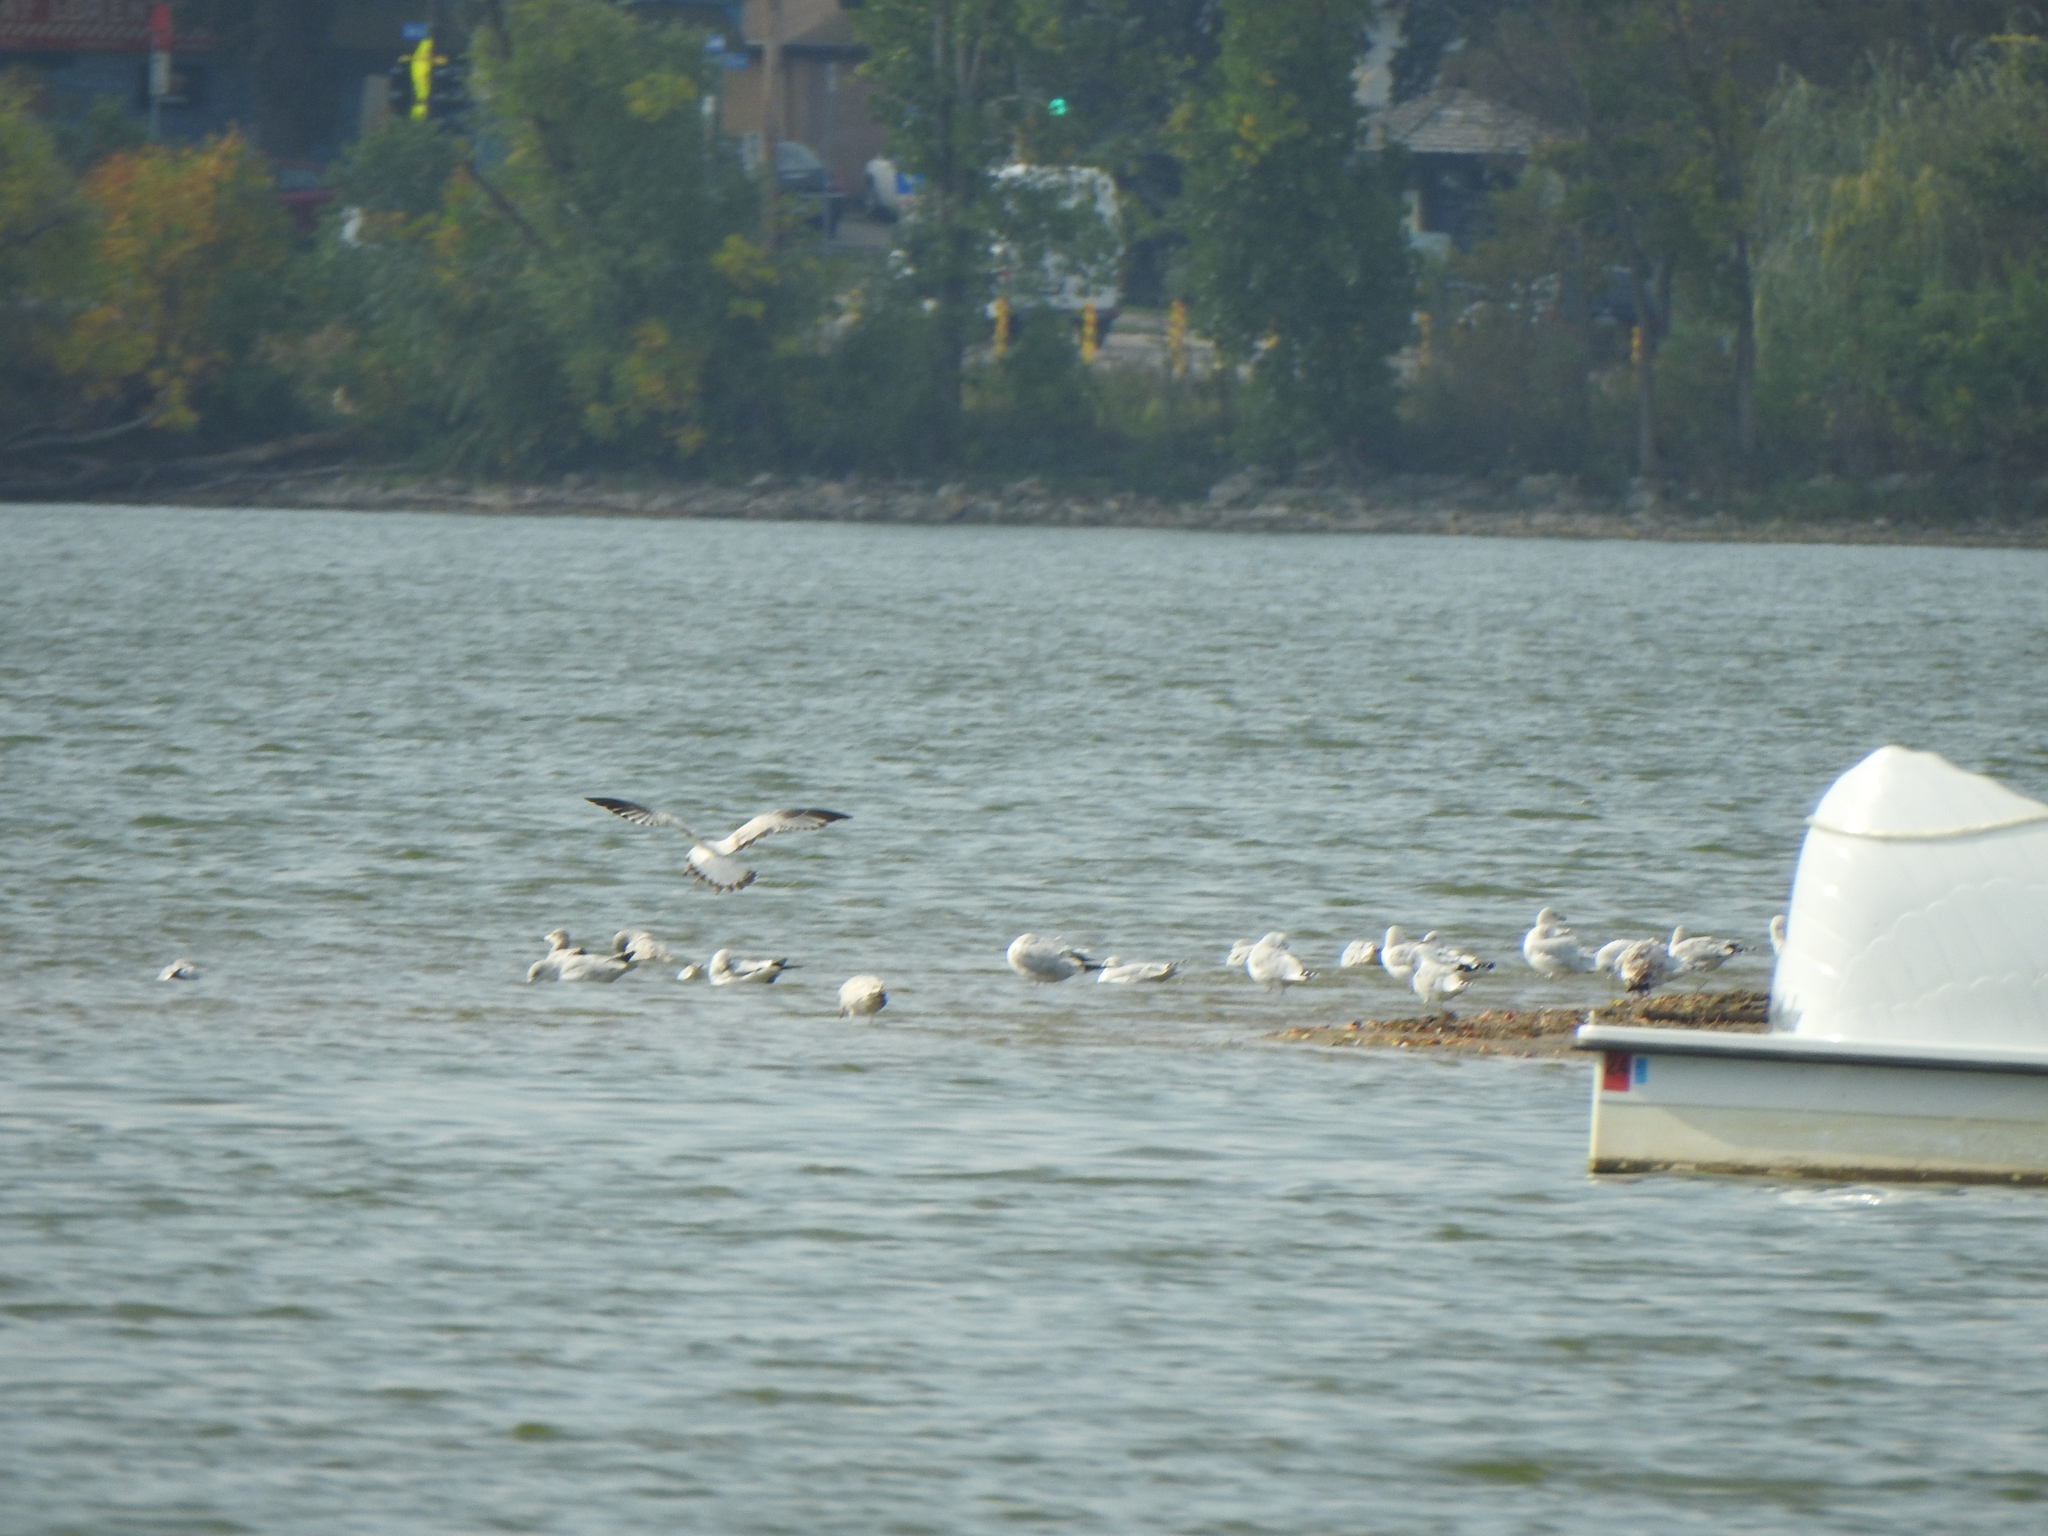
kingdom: Animalia
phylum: Chordata
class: Aves
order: Charadriiformes
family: Laridae
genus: Larus
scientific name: Larus delawarensis
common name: Ring-billed gull
